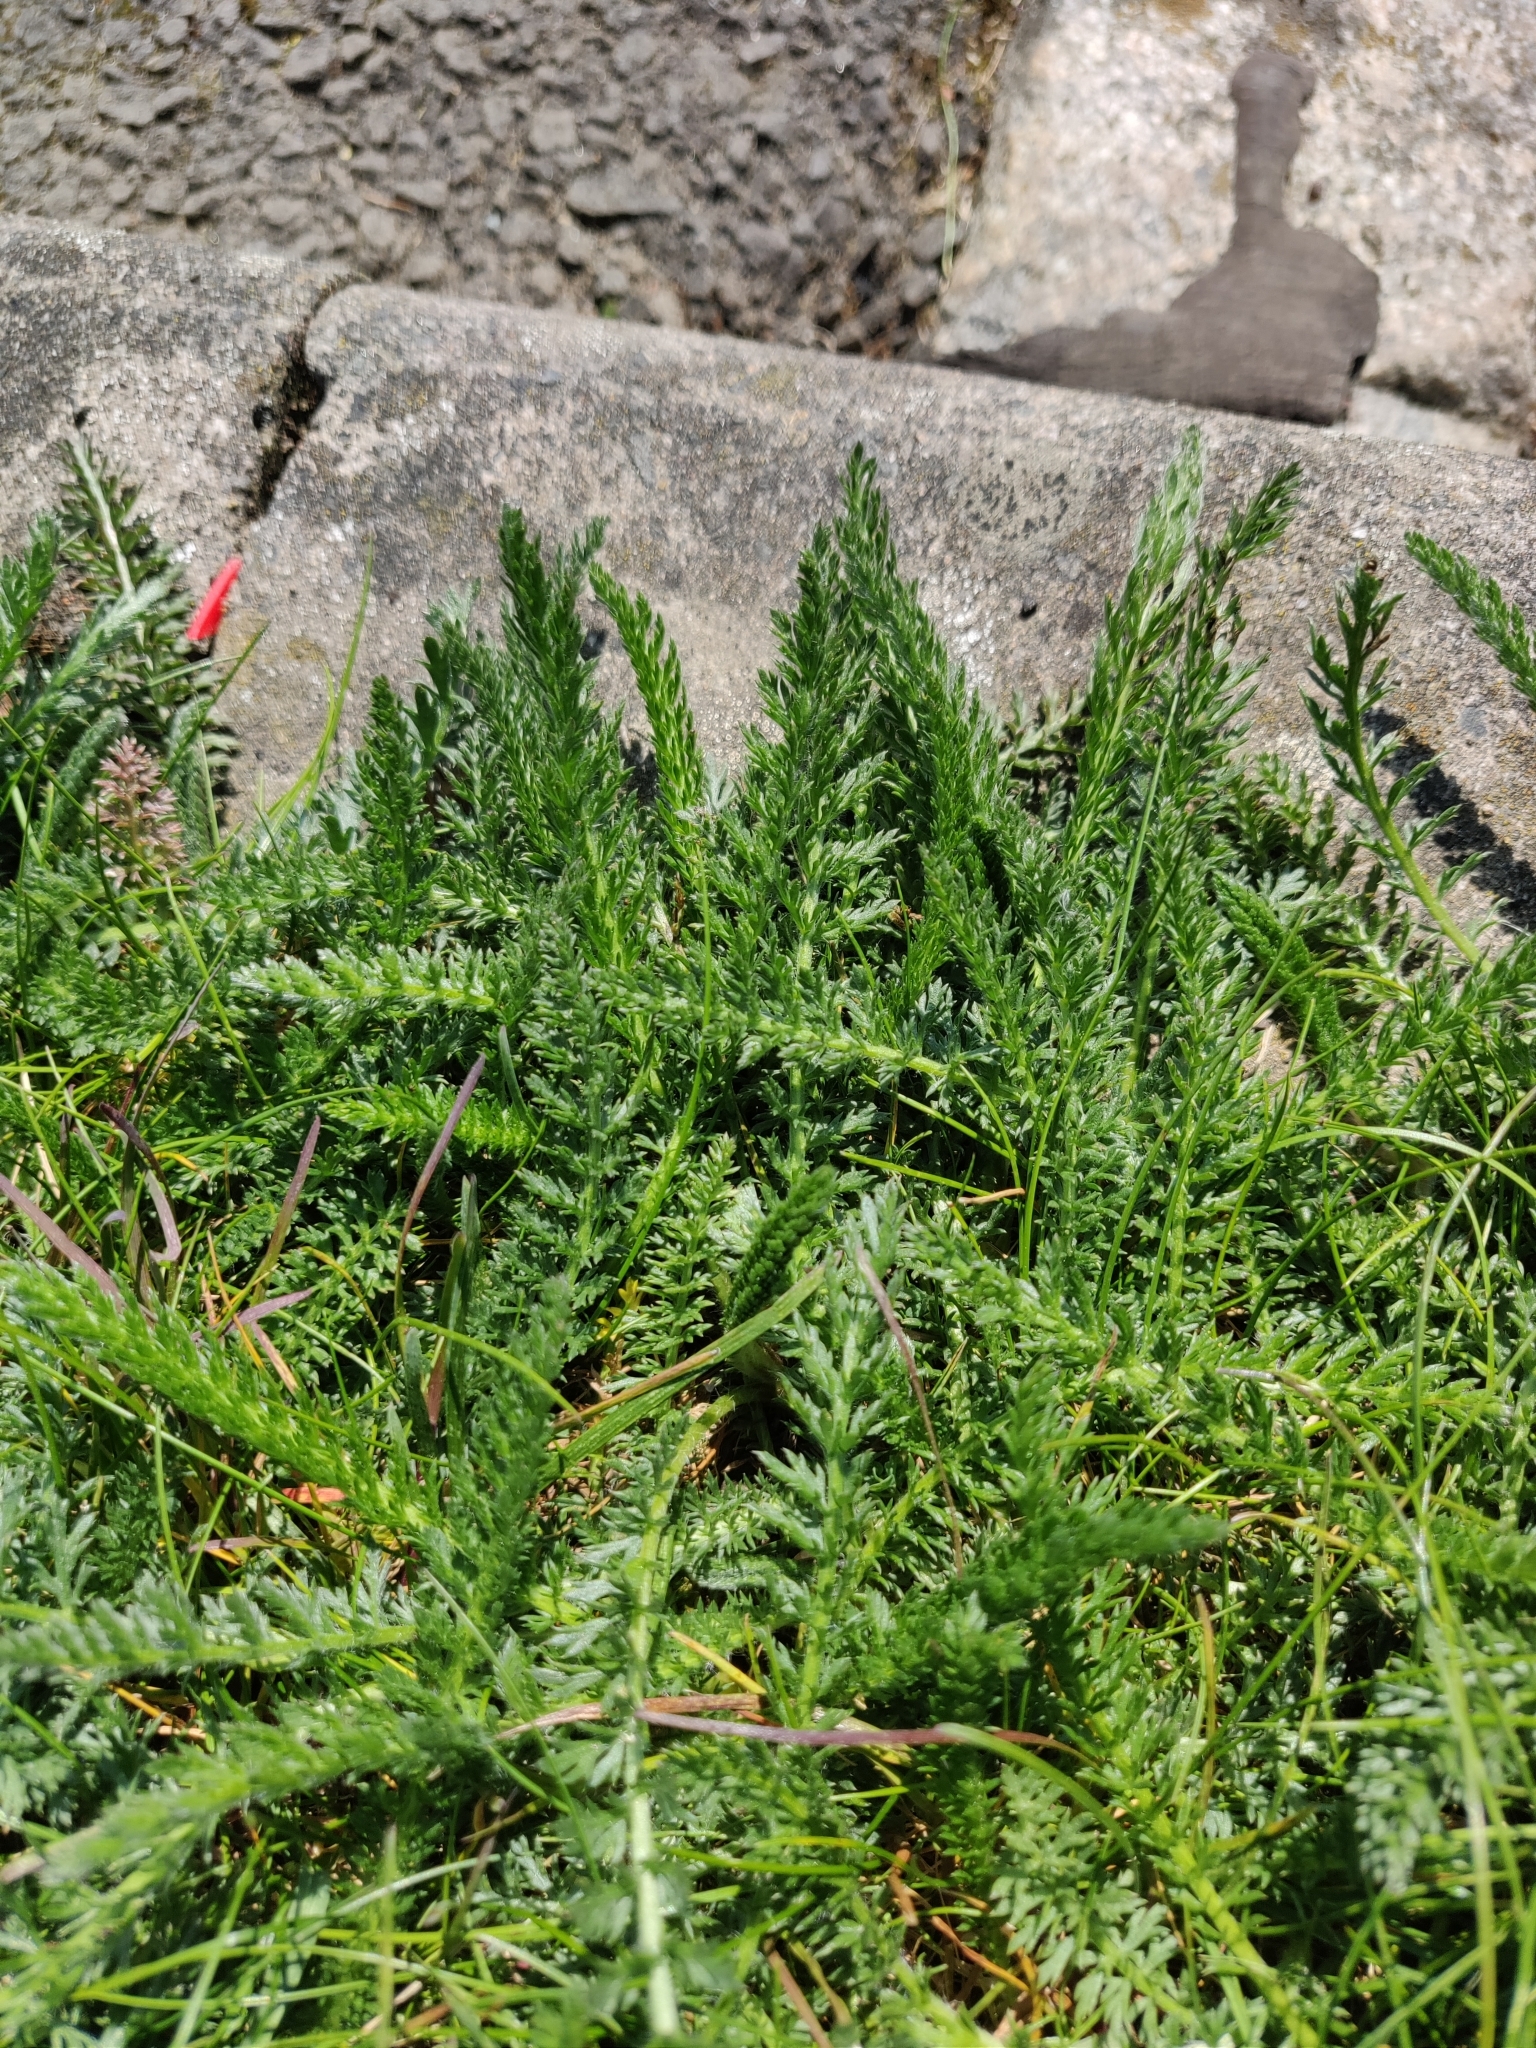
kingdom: Plantae
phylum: Tracheophyta
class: Magnoliopsida
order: Asterales
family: Asteraceae
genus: Achillea
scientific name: Achillea millefolium
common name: Yarrow
